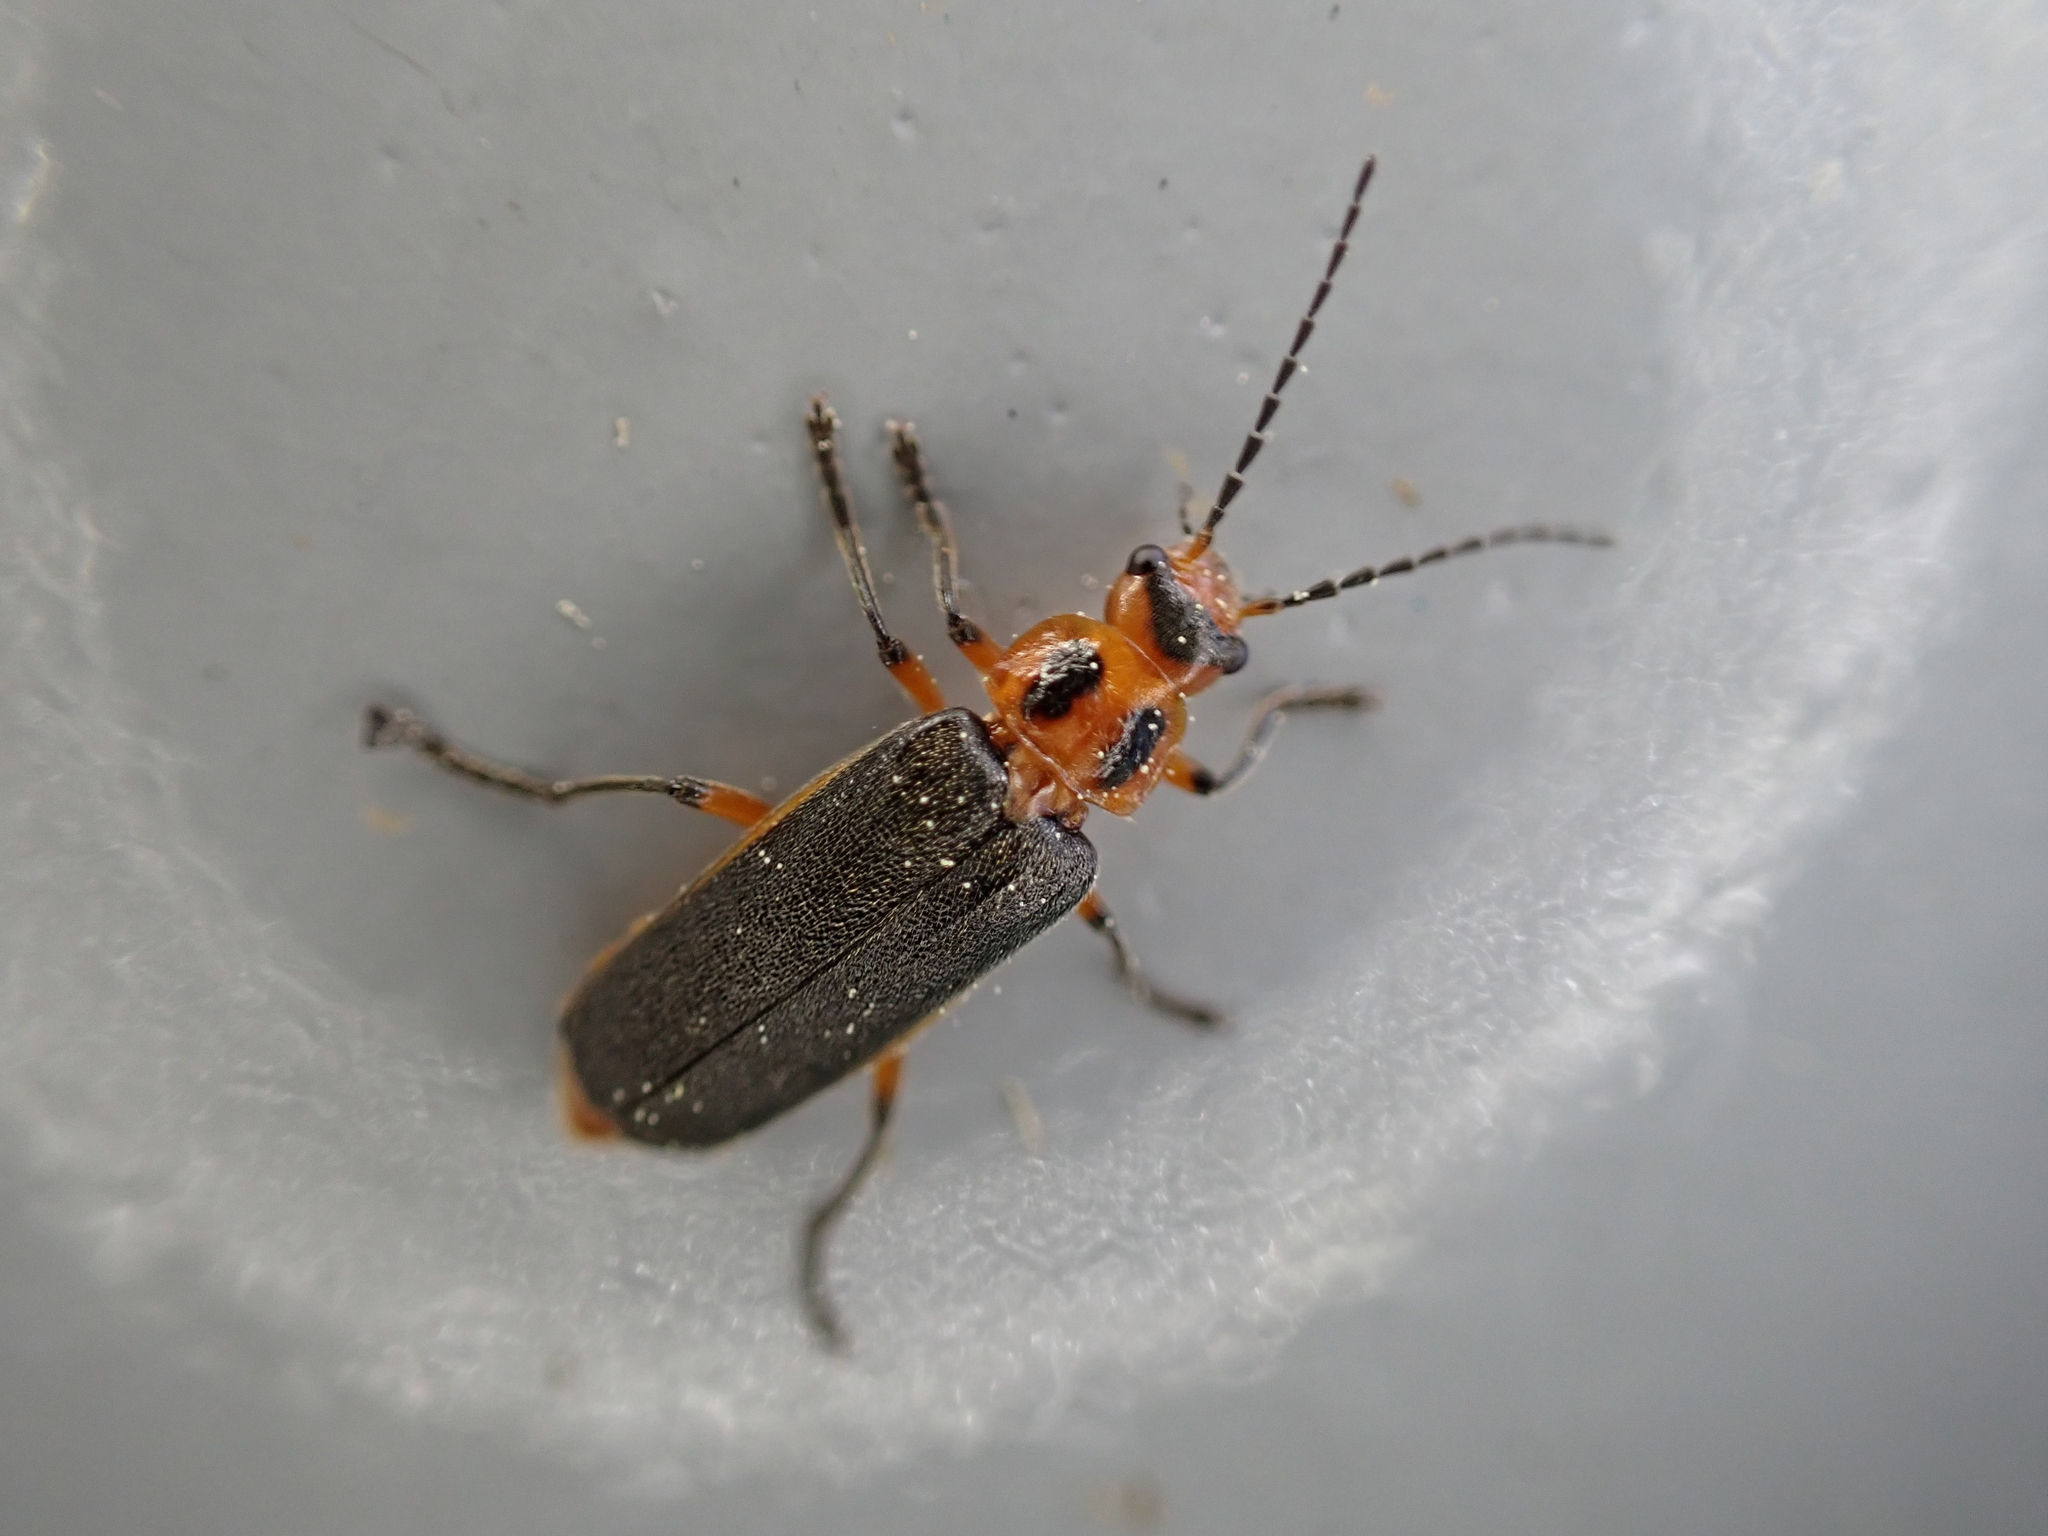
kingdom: Animalia
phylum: Arthropoda
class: Insecta
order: Coleoptera
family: Cantharidae
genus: Atalantycha
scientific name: Atalantycha bilineata
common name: Two-lined leatherwing
